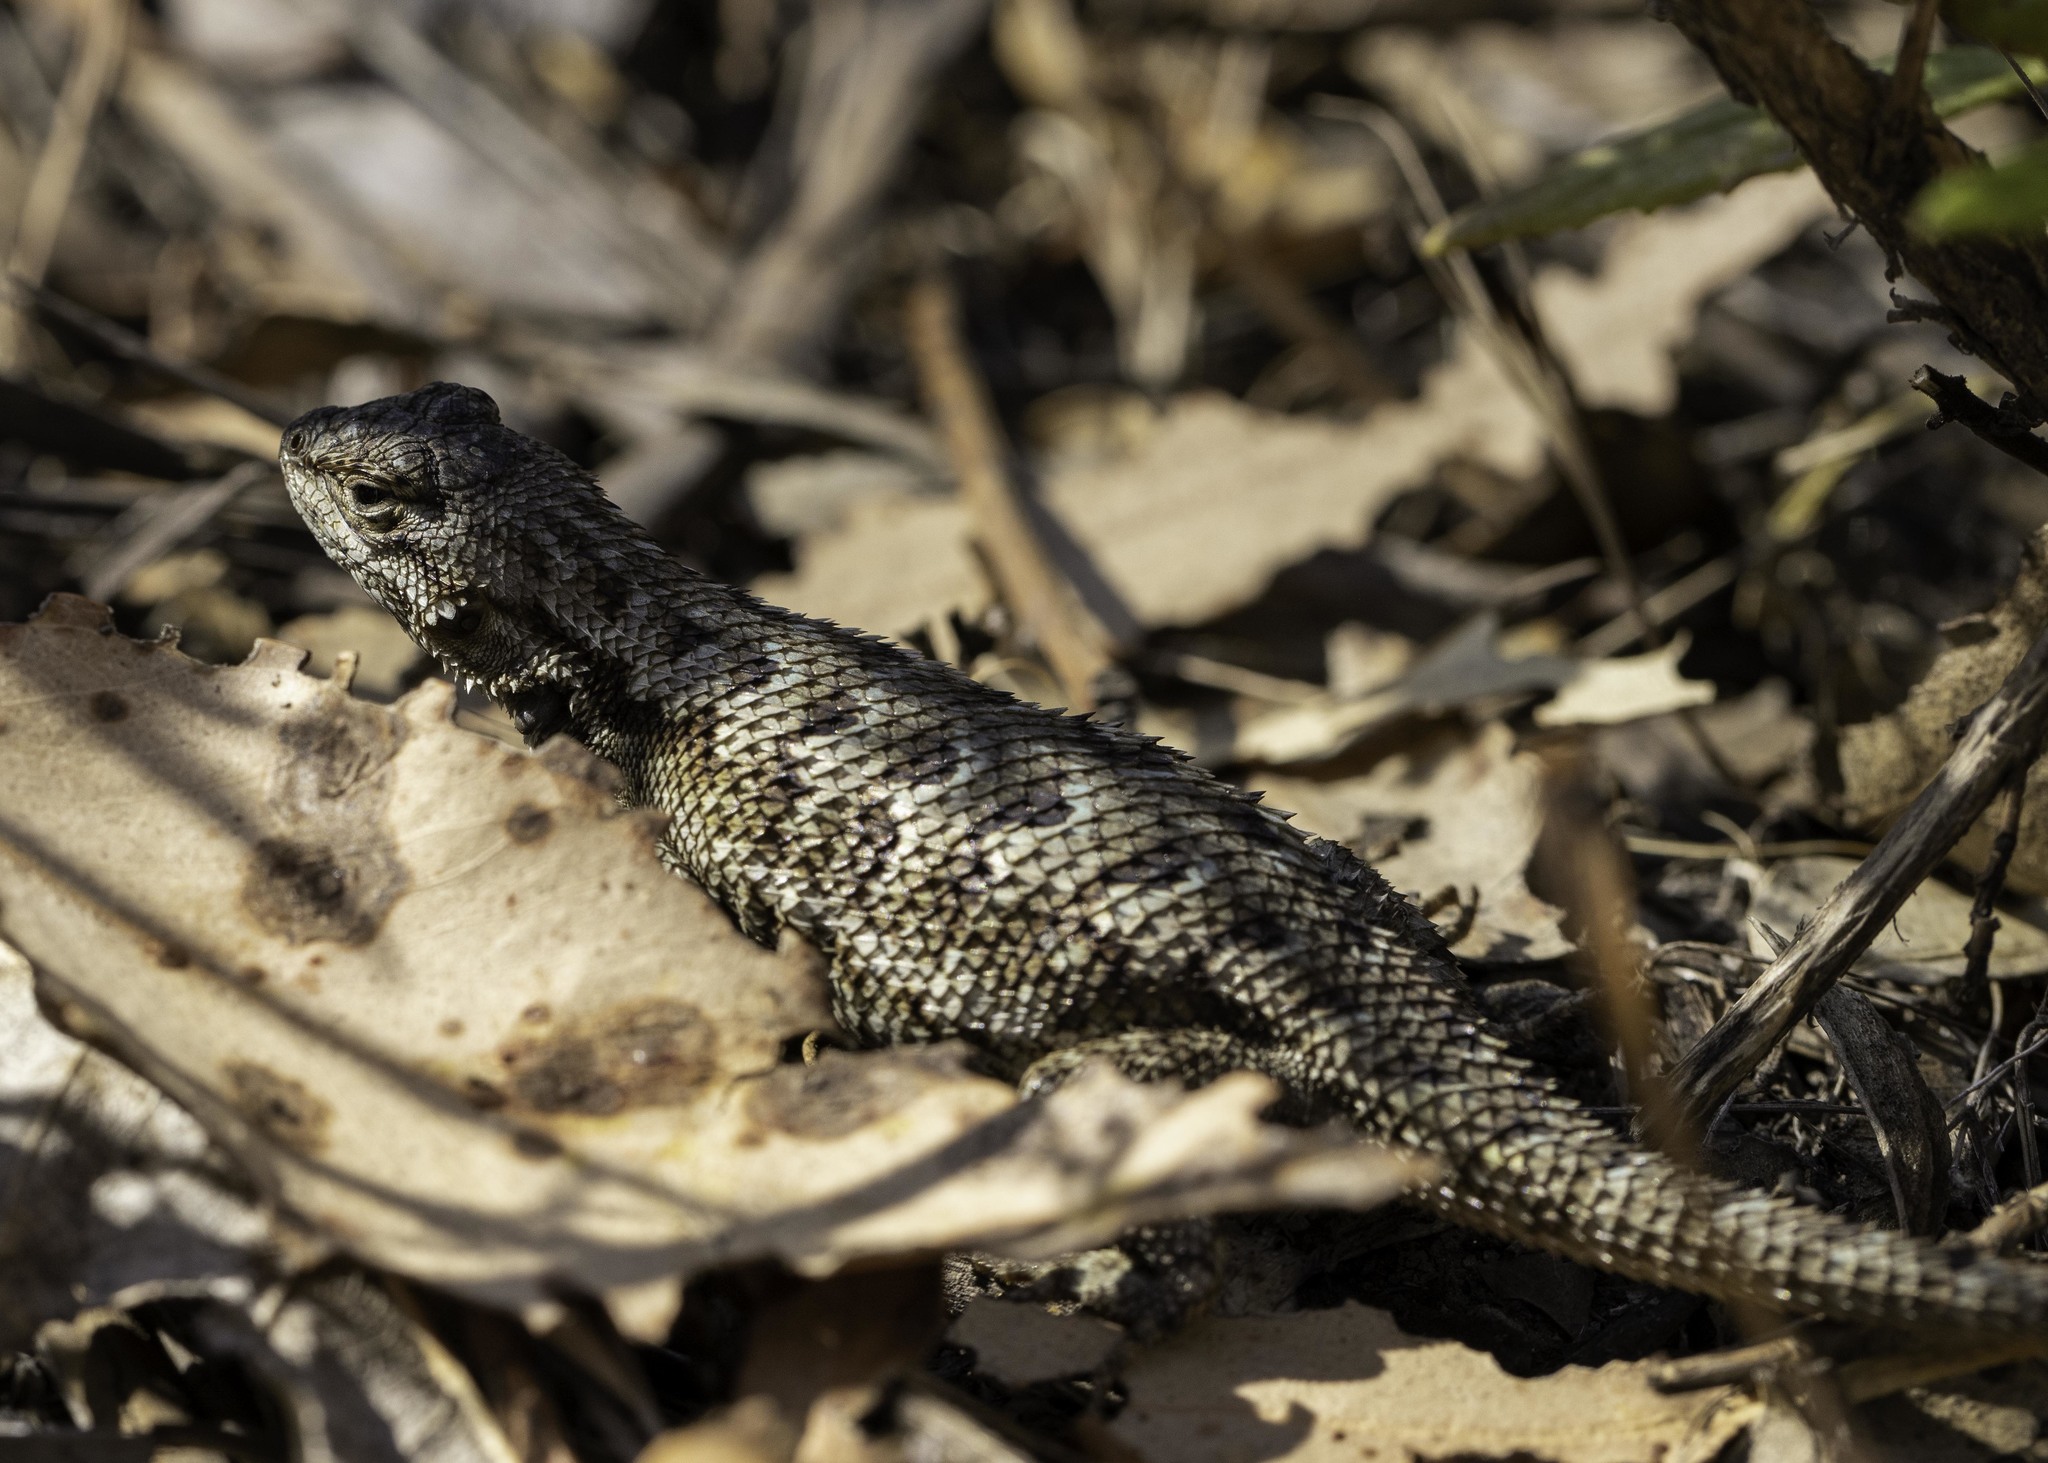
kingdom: Animalia
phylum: Chordata
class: Squamata
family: Phrynosomatidae
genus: Sceloporus
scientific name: Sceloporus occidentalis
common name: Western fence lizard
